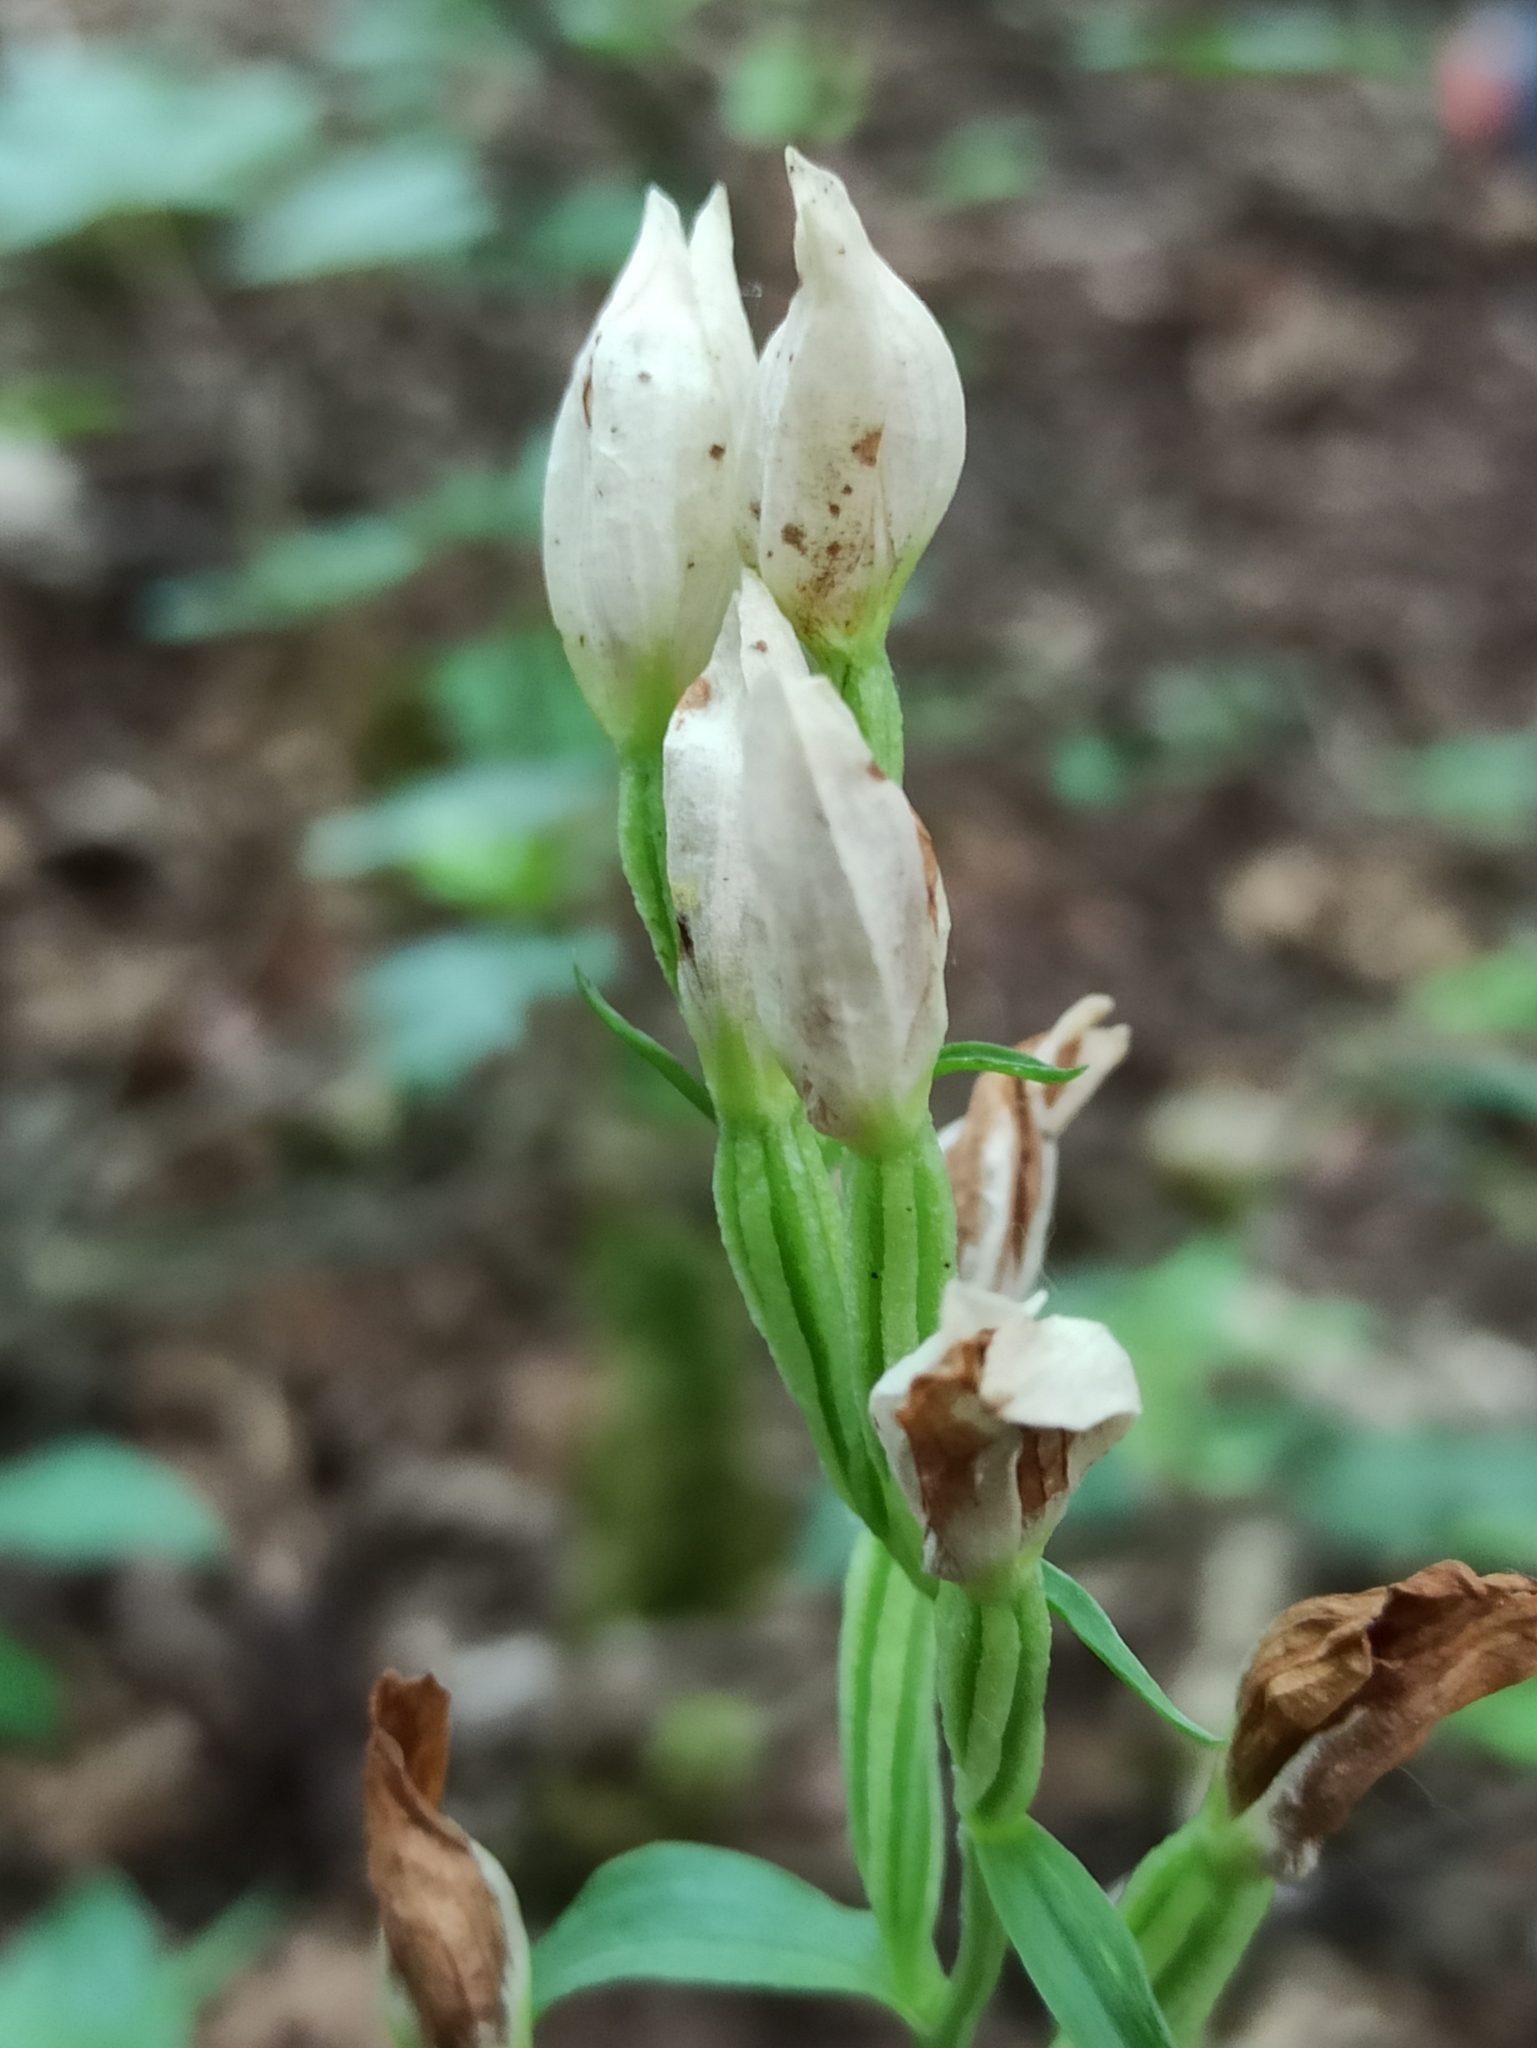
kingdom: Plantae
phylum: Tracheophyta
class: Liliopsida
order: Asparagales
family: Orchidaceae
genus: Cephalanthera
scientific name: Cephalanthera damasonium
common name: White helleborine
